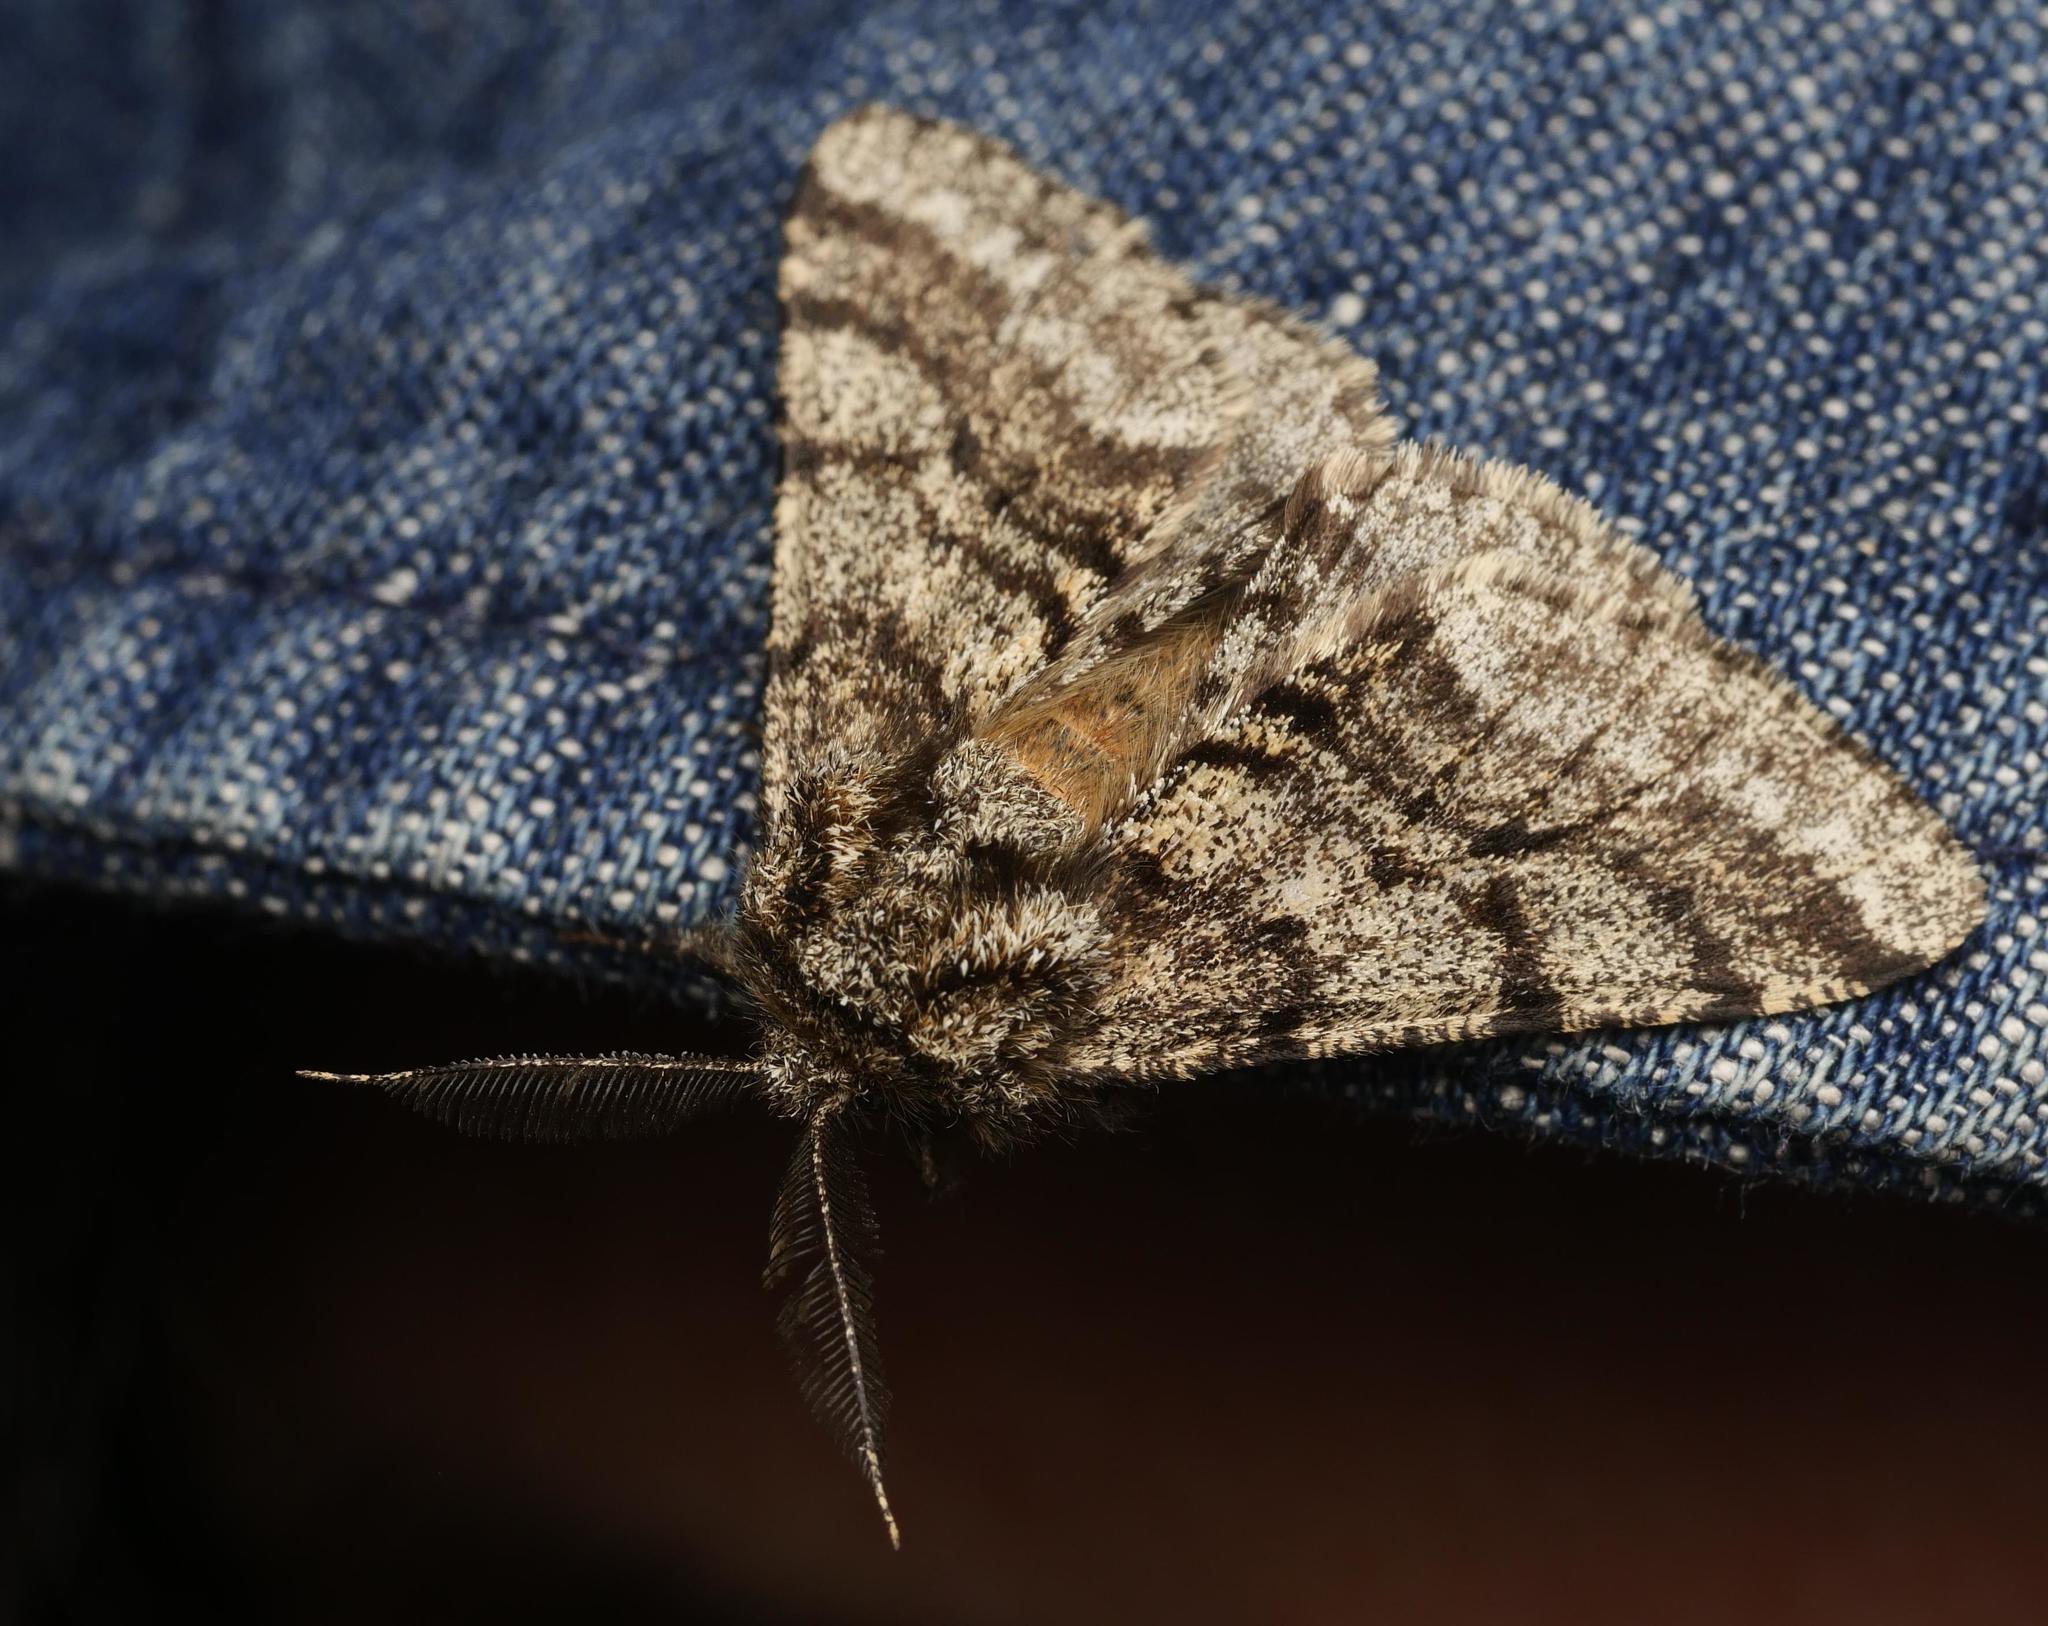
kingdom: Animalia
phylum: Arthropoda
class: Insecta
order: Lepidoptera
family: Geometridae
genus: Lycia
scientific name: Lycia hirtaria
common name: Brindled beauty
